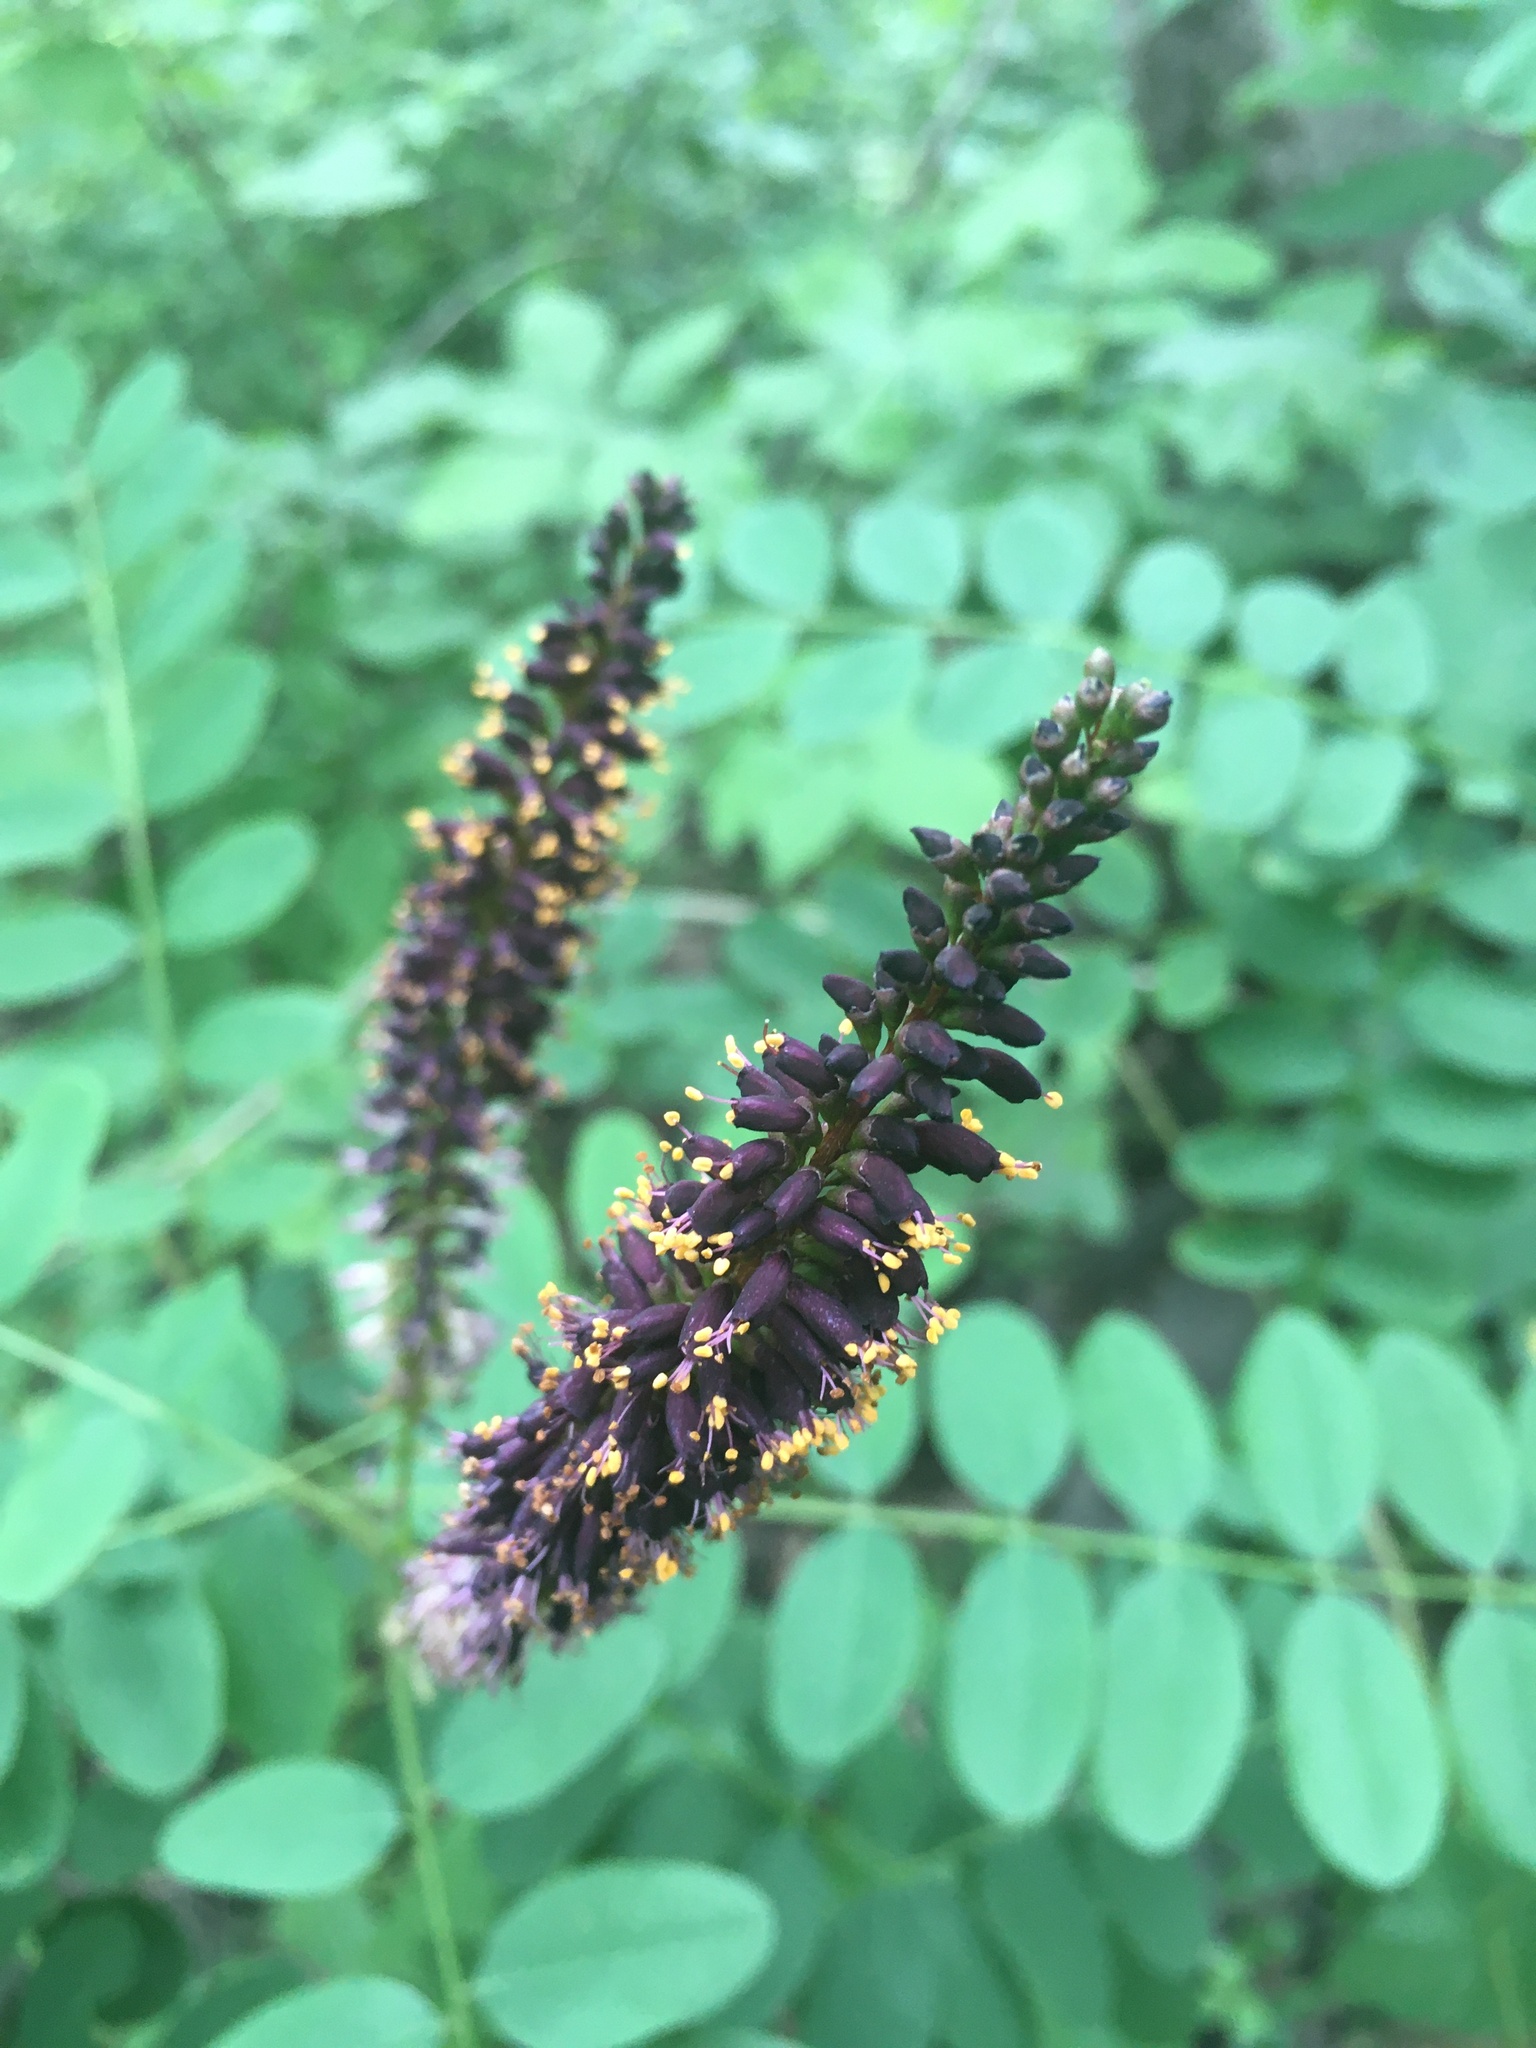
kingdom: Plantae
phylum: Tracheophyta
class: Magnoliopsida
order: Fabales
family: Fabaceae
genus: Amorpha
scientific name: Amorpha fruticosa
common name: False indigo
